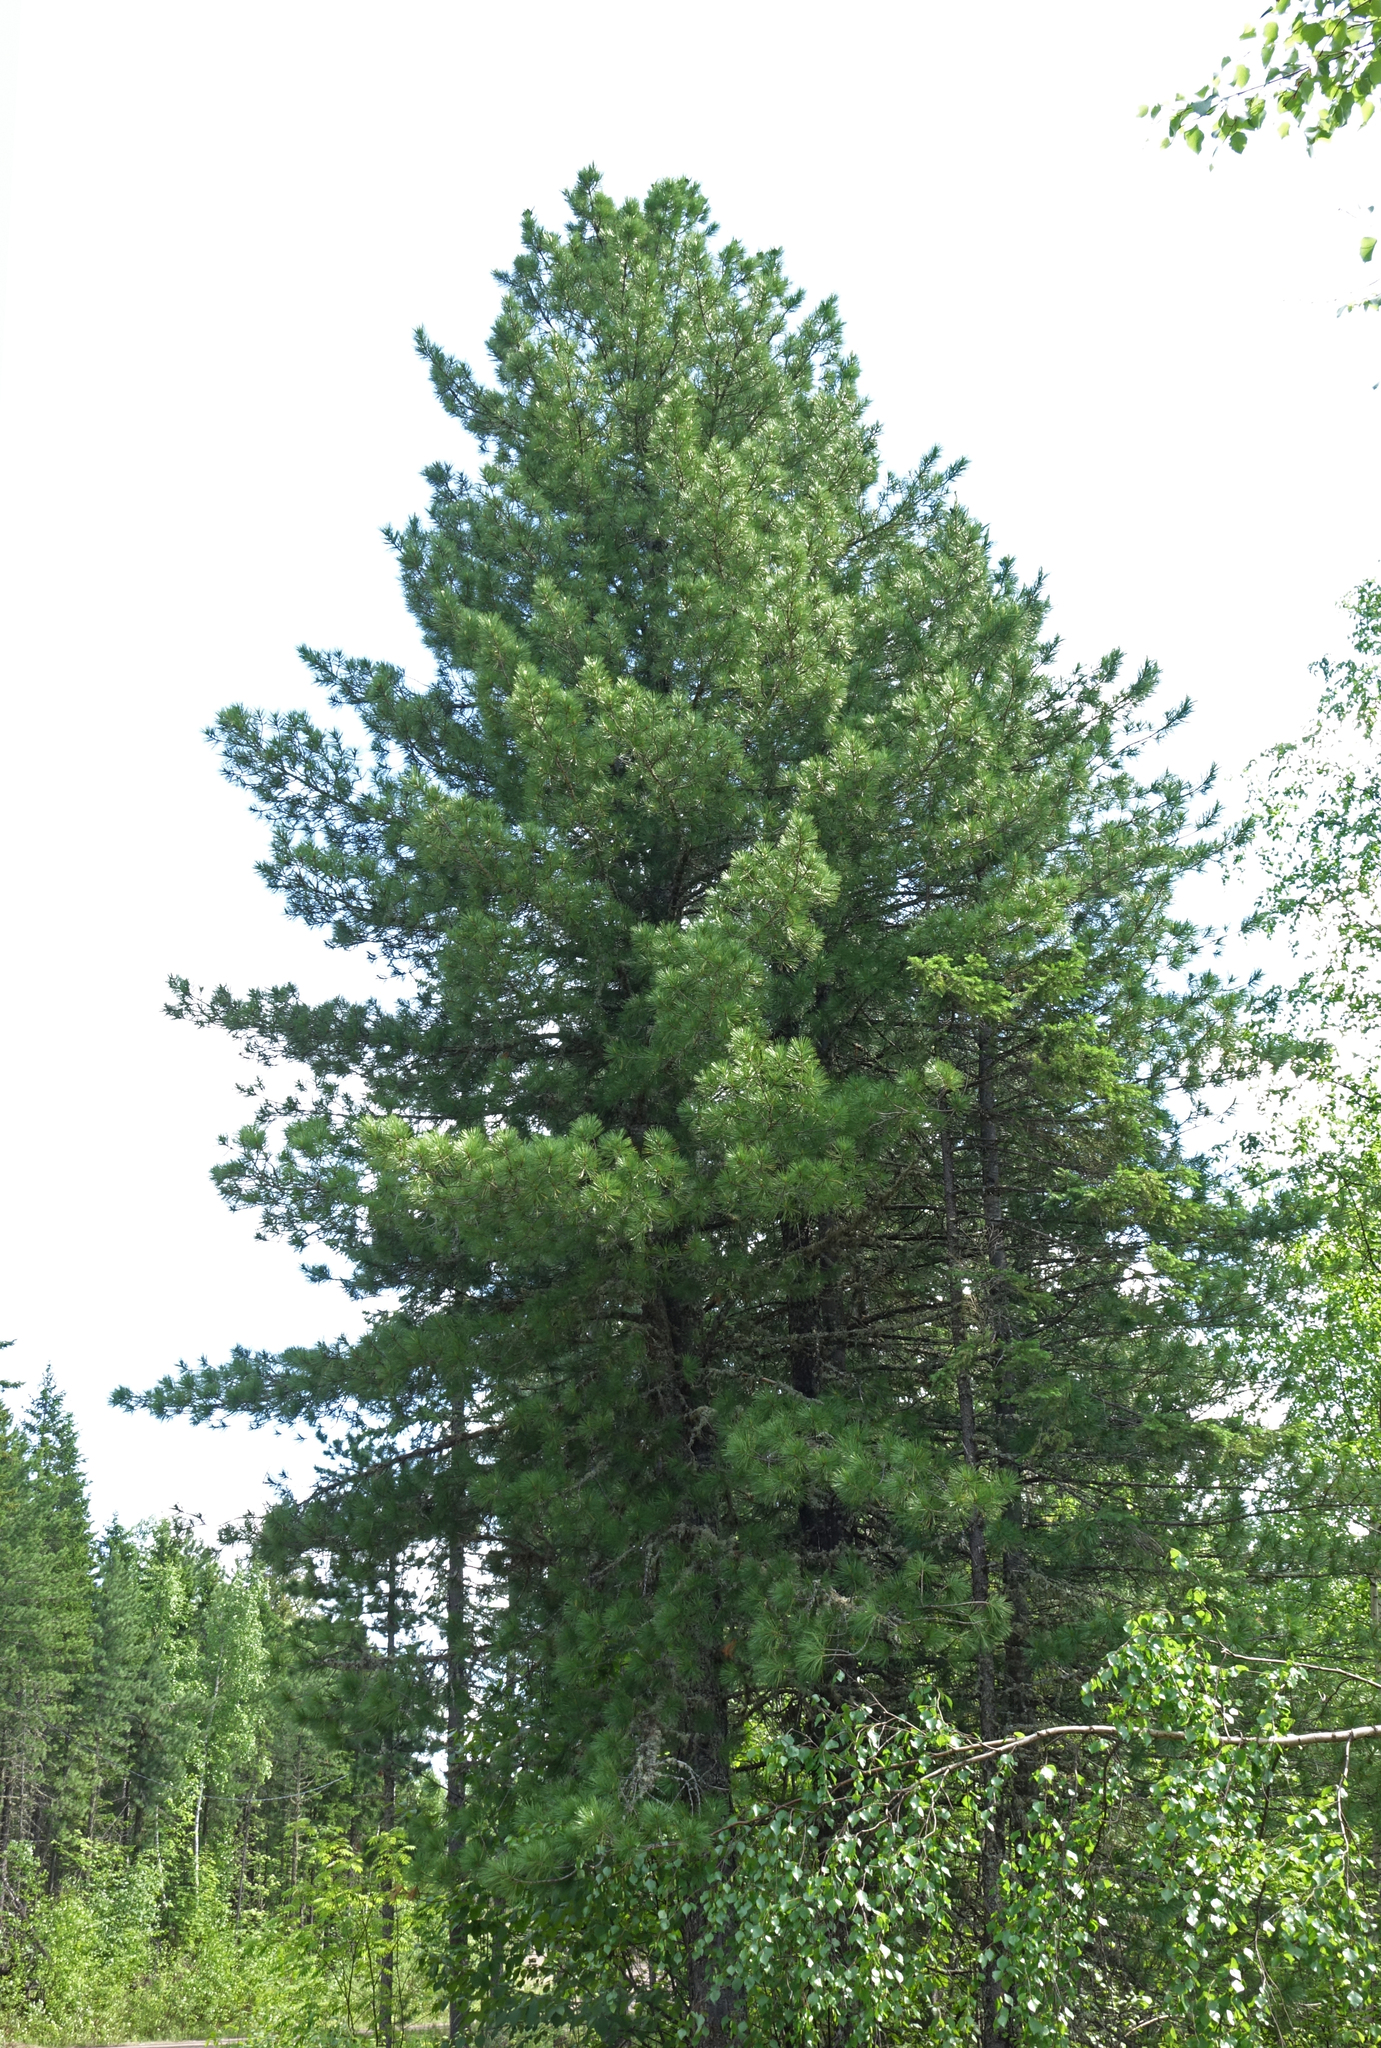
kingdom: Plantae
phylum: Tracheophyta
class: Pinopsida
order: Pinales
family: Pinaceae
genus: Pinus
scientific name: Pinus sibirica
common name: Siberian pine
